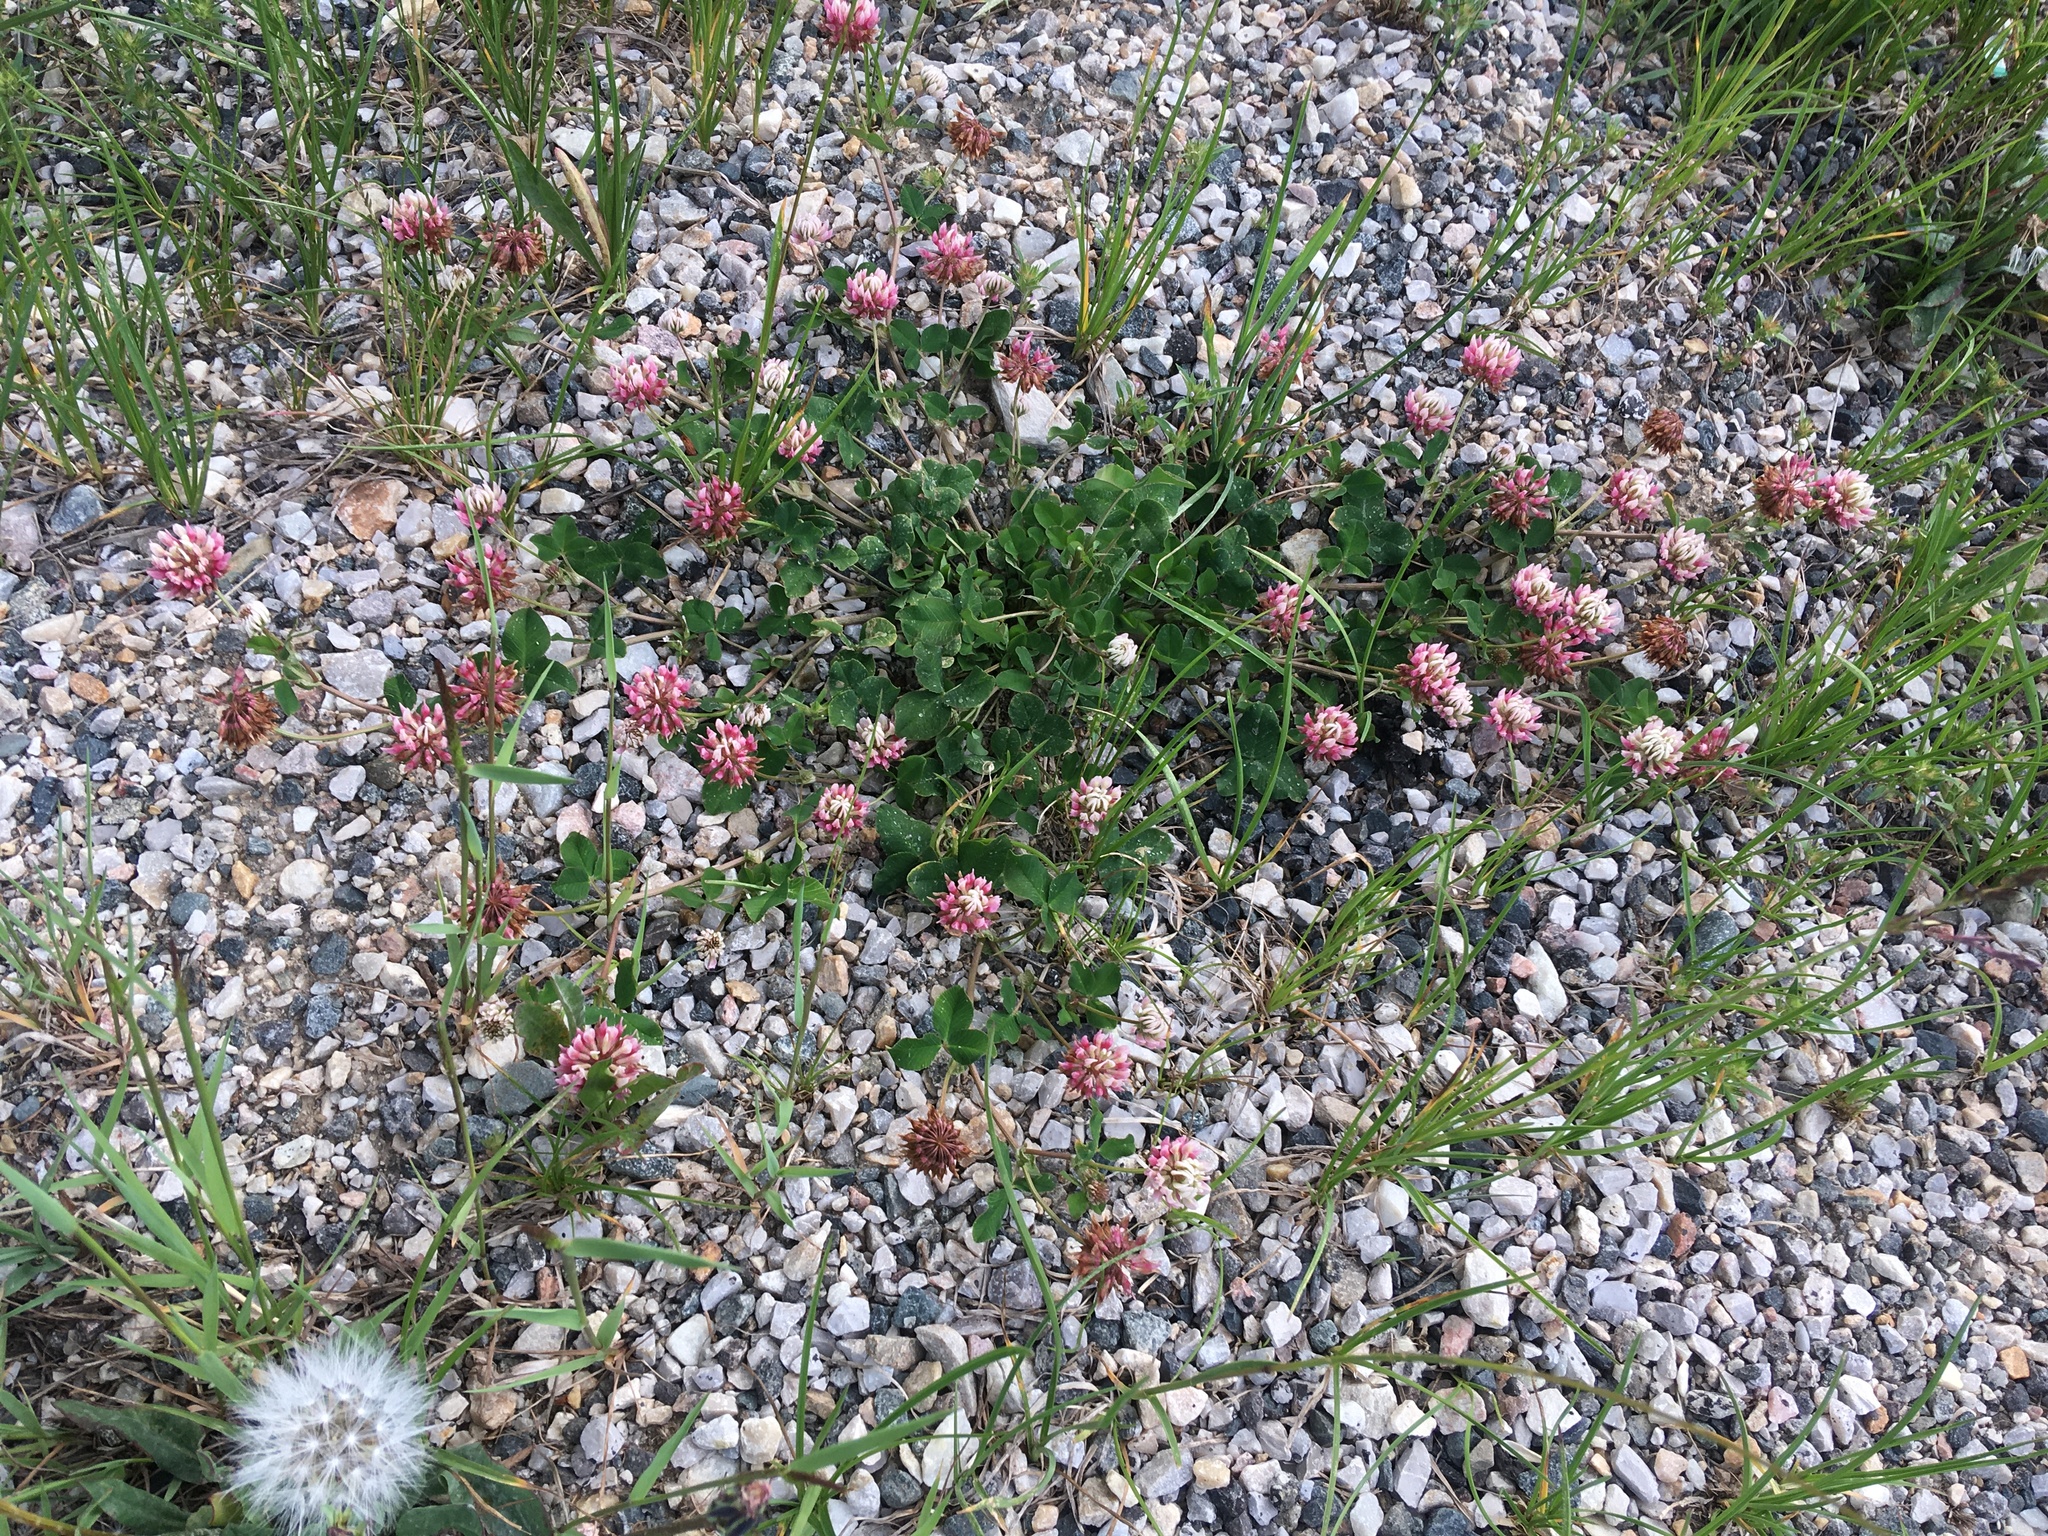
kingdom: Plantae
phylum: Tracheophyta
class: Magnoliopsida
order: Fabales
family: Fabaceae
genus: Trifolium
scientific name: Trifolium hybridum
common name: Alsike clover
